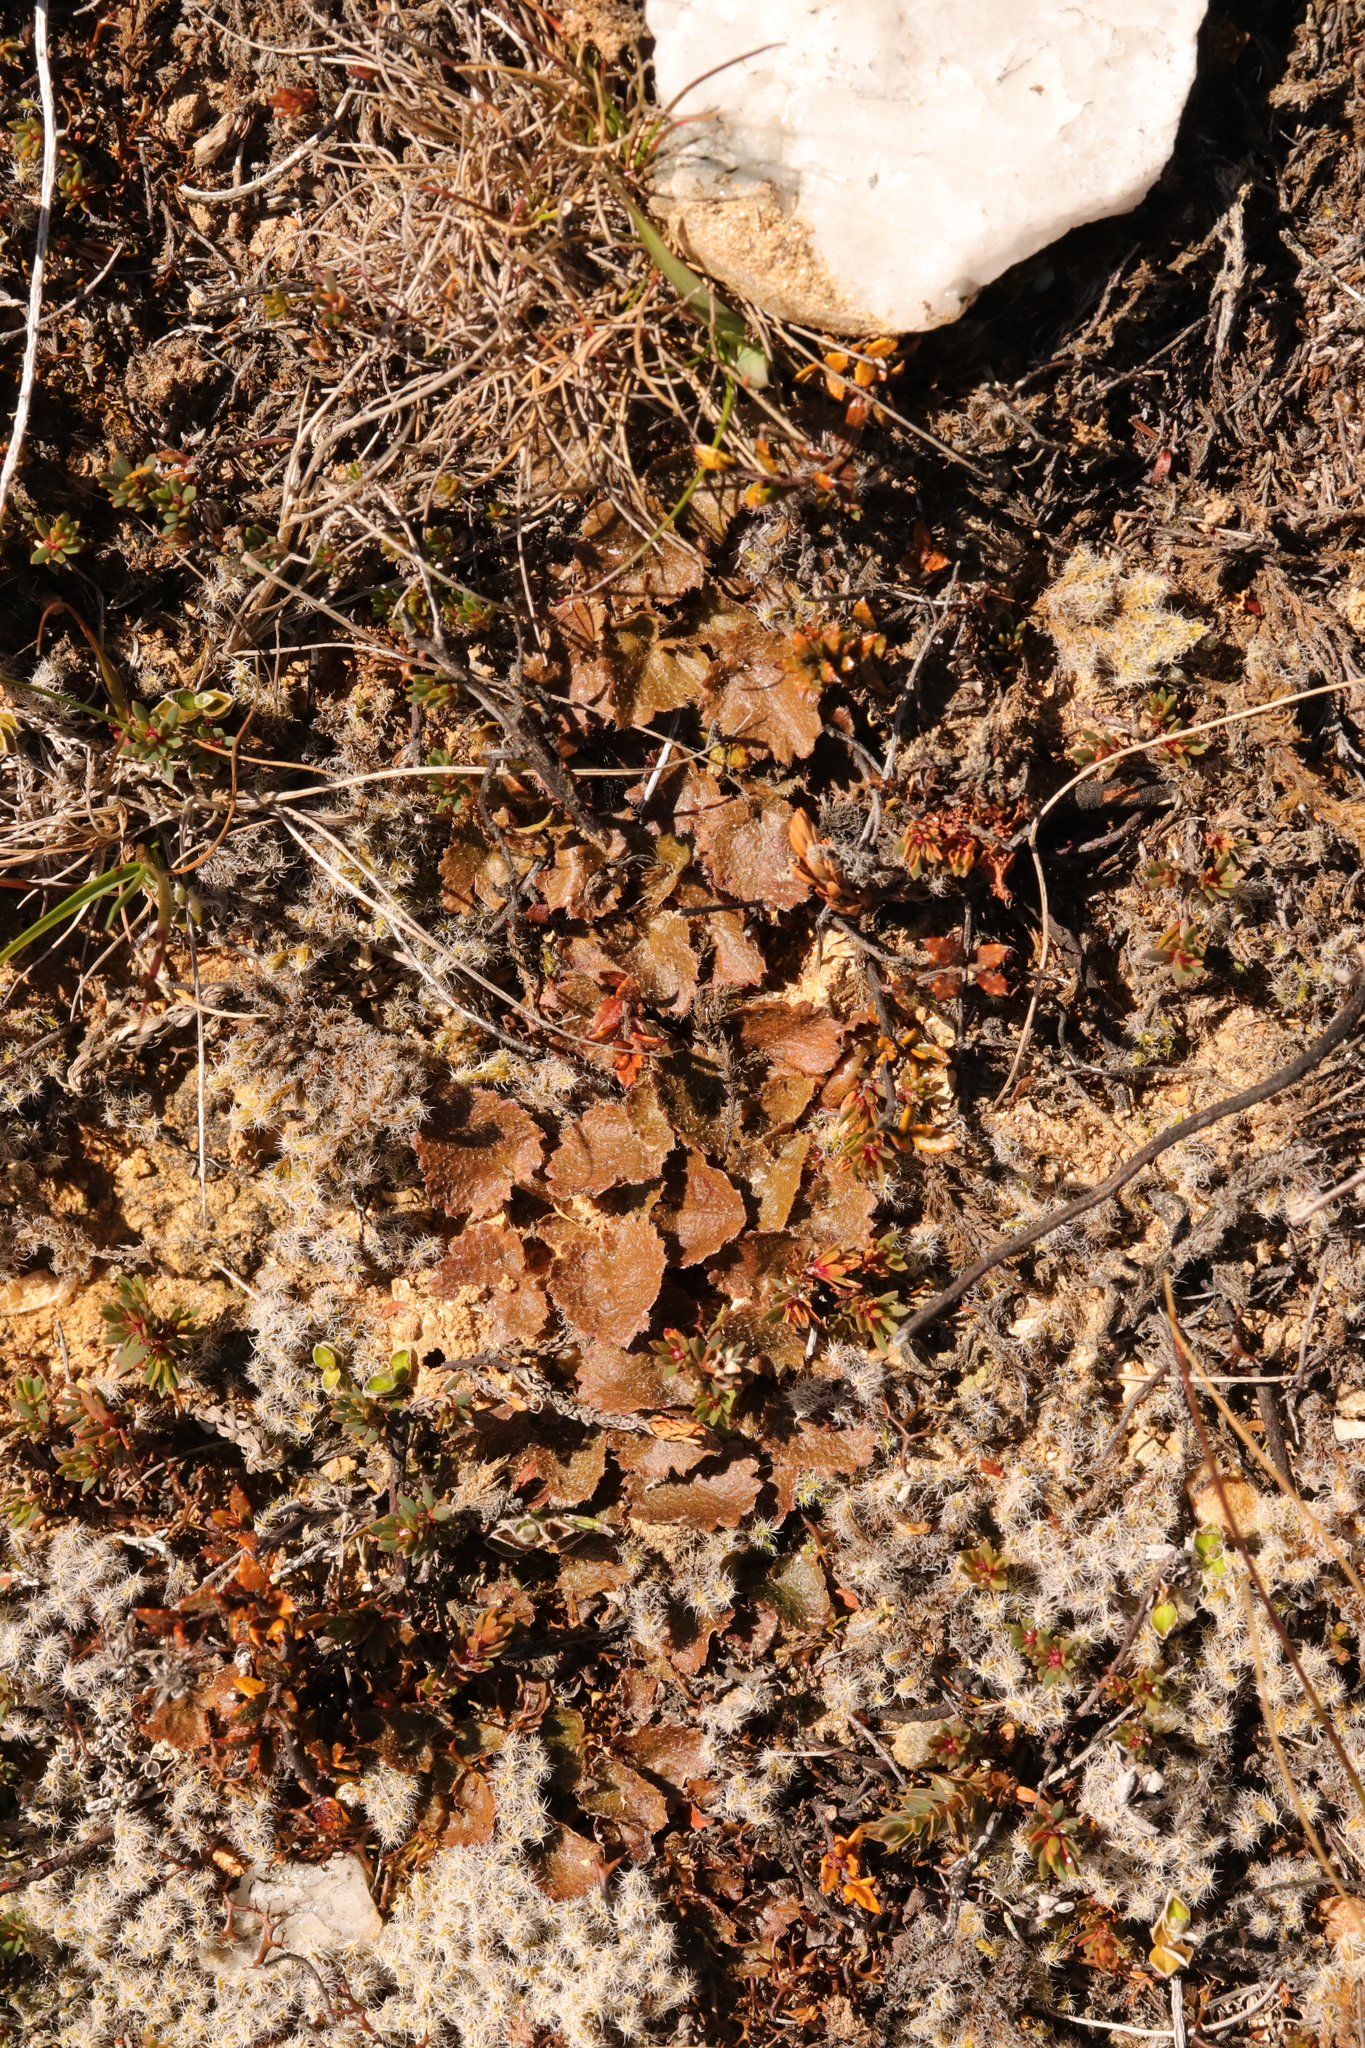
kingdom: Plantae
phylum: Tracheophyta
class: Magnoliopsida
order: Gunnerales
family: Gunneraceae
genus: Gunnera
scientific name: Gunnera monoica
